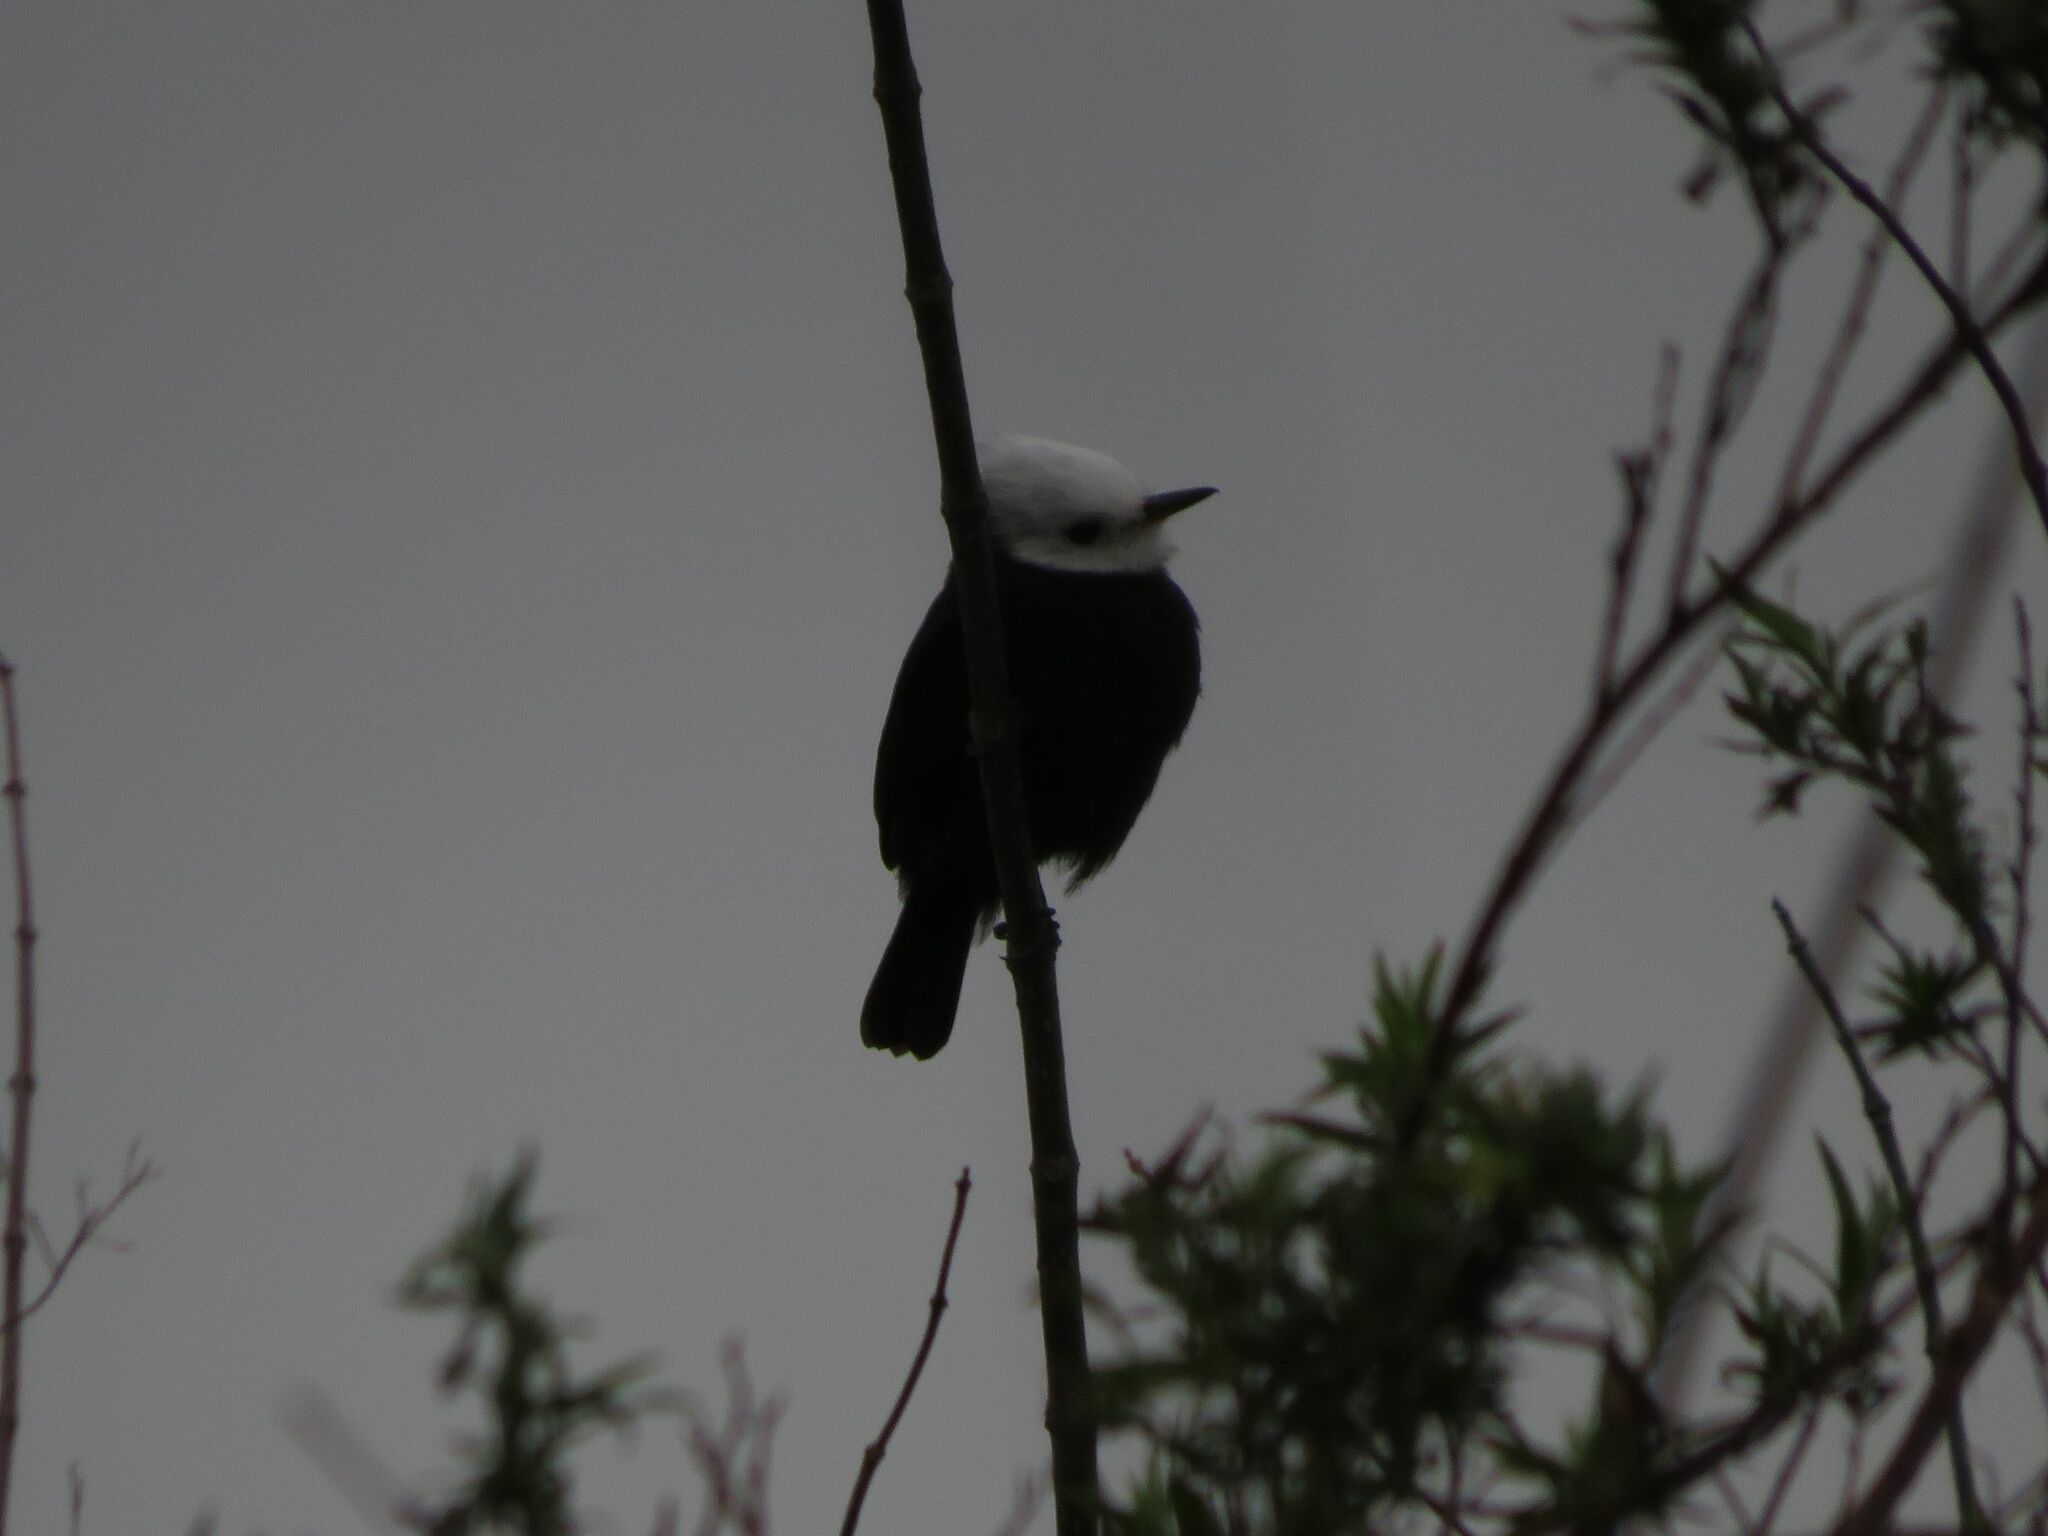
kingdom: Animalia
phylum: Chordata
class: Aves
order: Passeriformes
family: Tyrannidae
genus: Arundinicola
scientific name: Arundinicola leucocephala
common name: White-headed marsh tyrant
